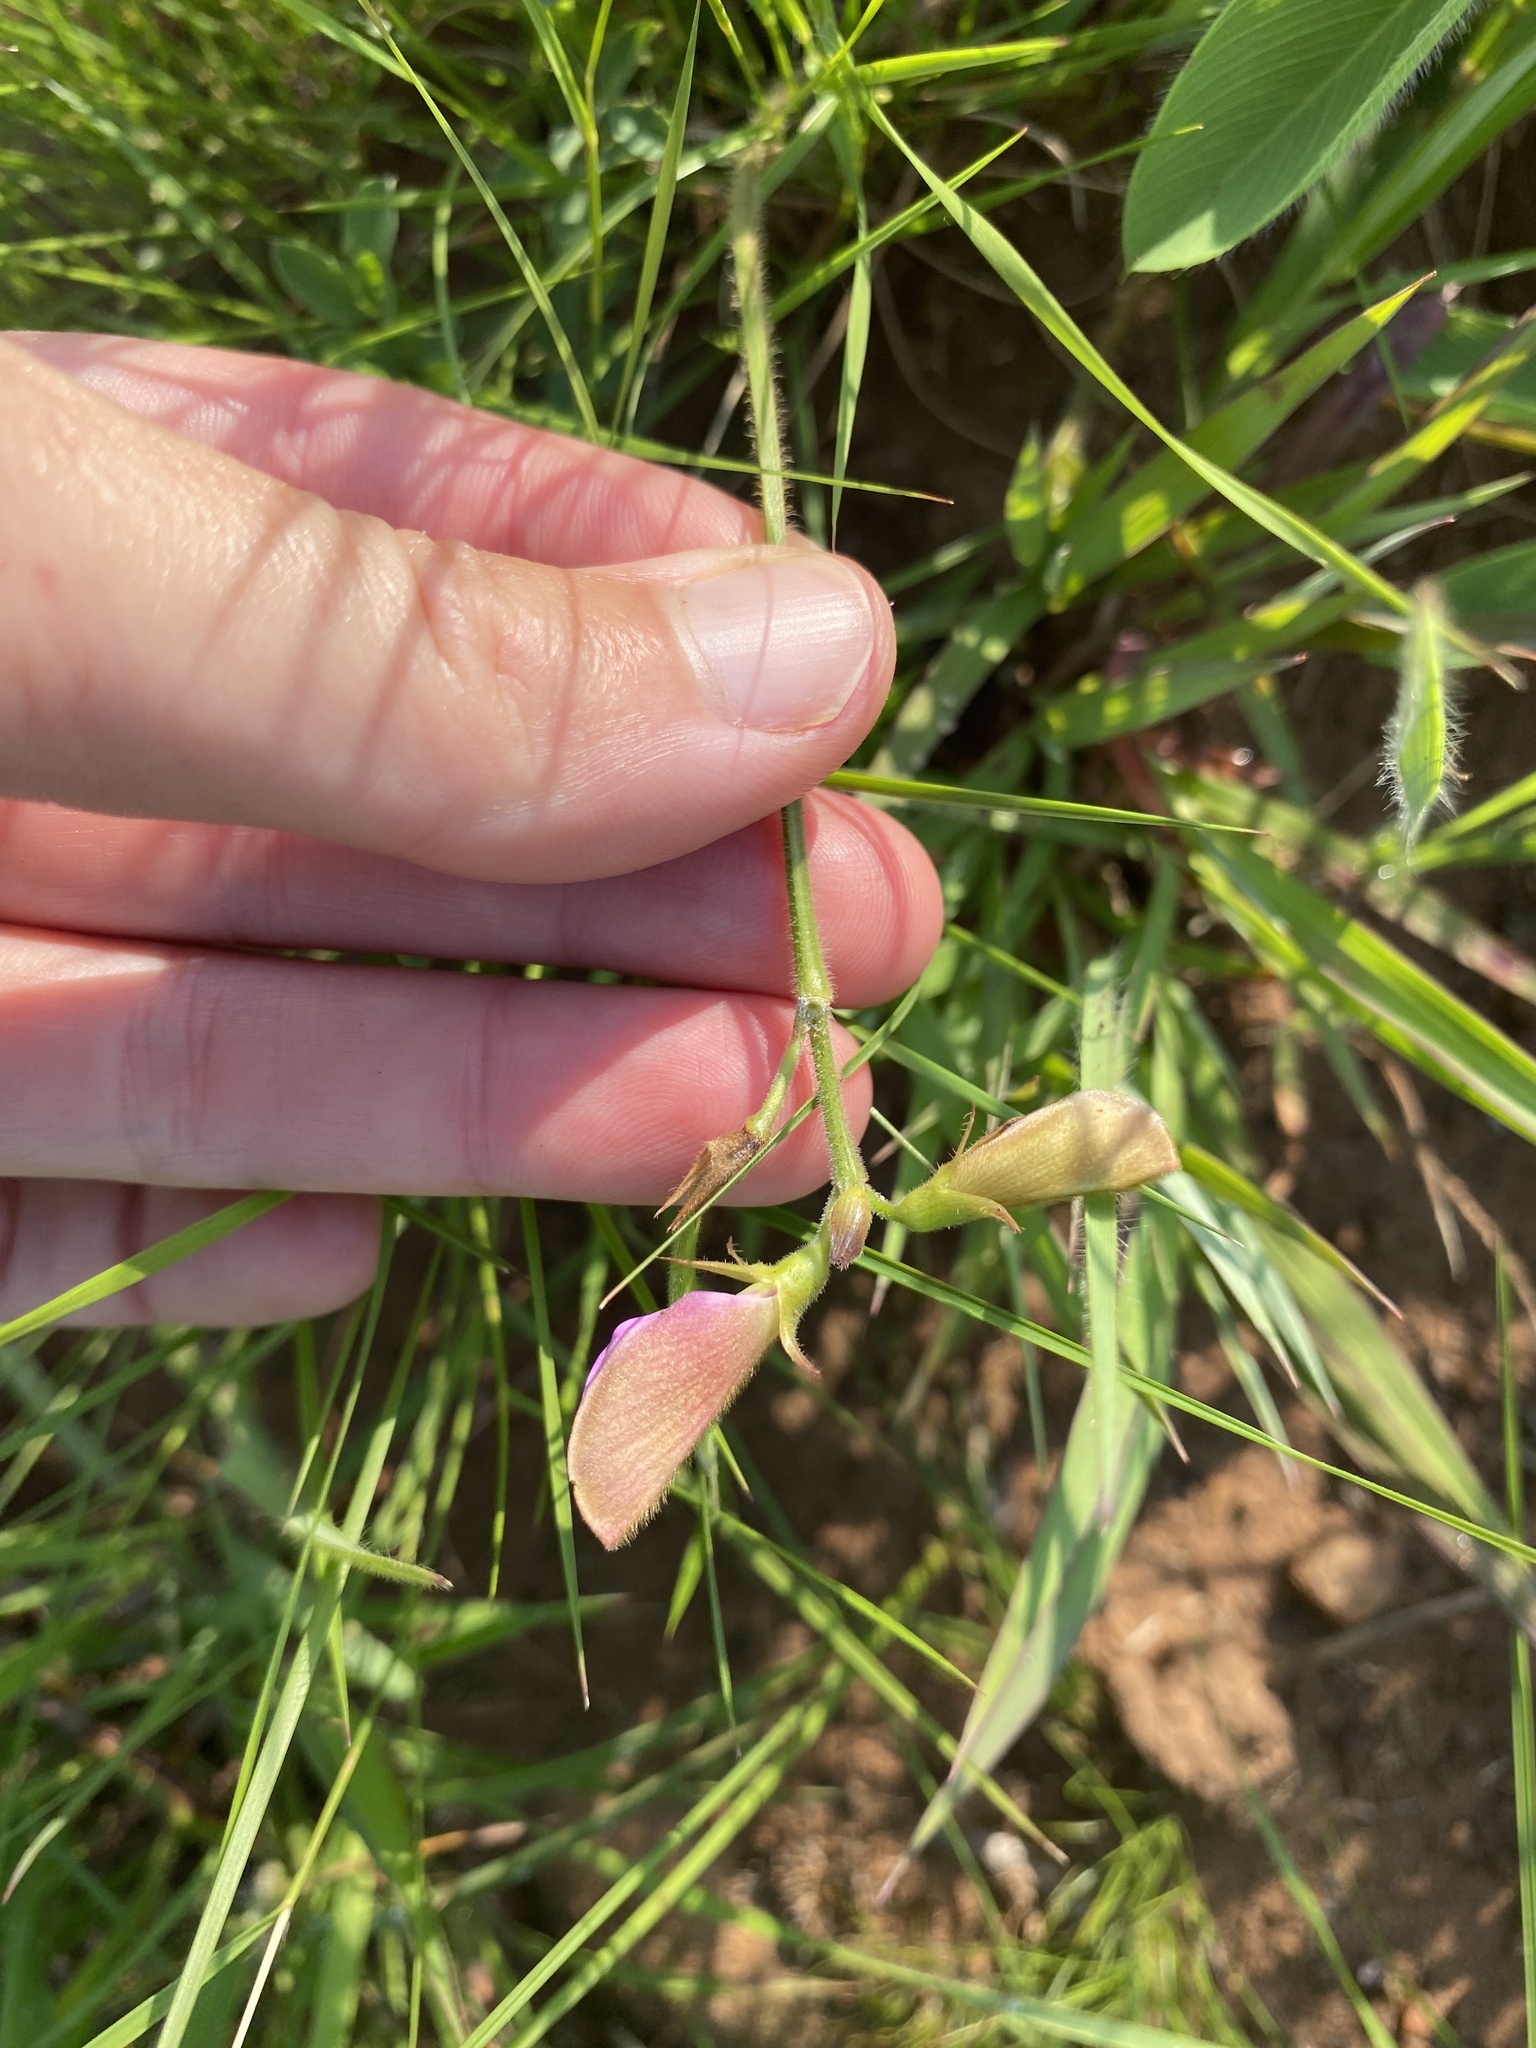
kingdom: Plantae
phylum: Tracheophyta
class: Magnoliopsida
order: Fabales
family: Fabaceae
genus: Tephrosia
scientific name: Tephrosia macropoda
